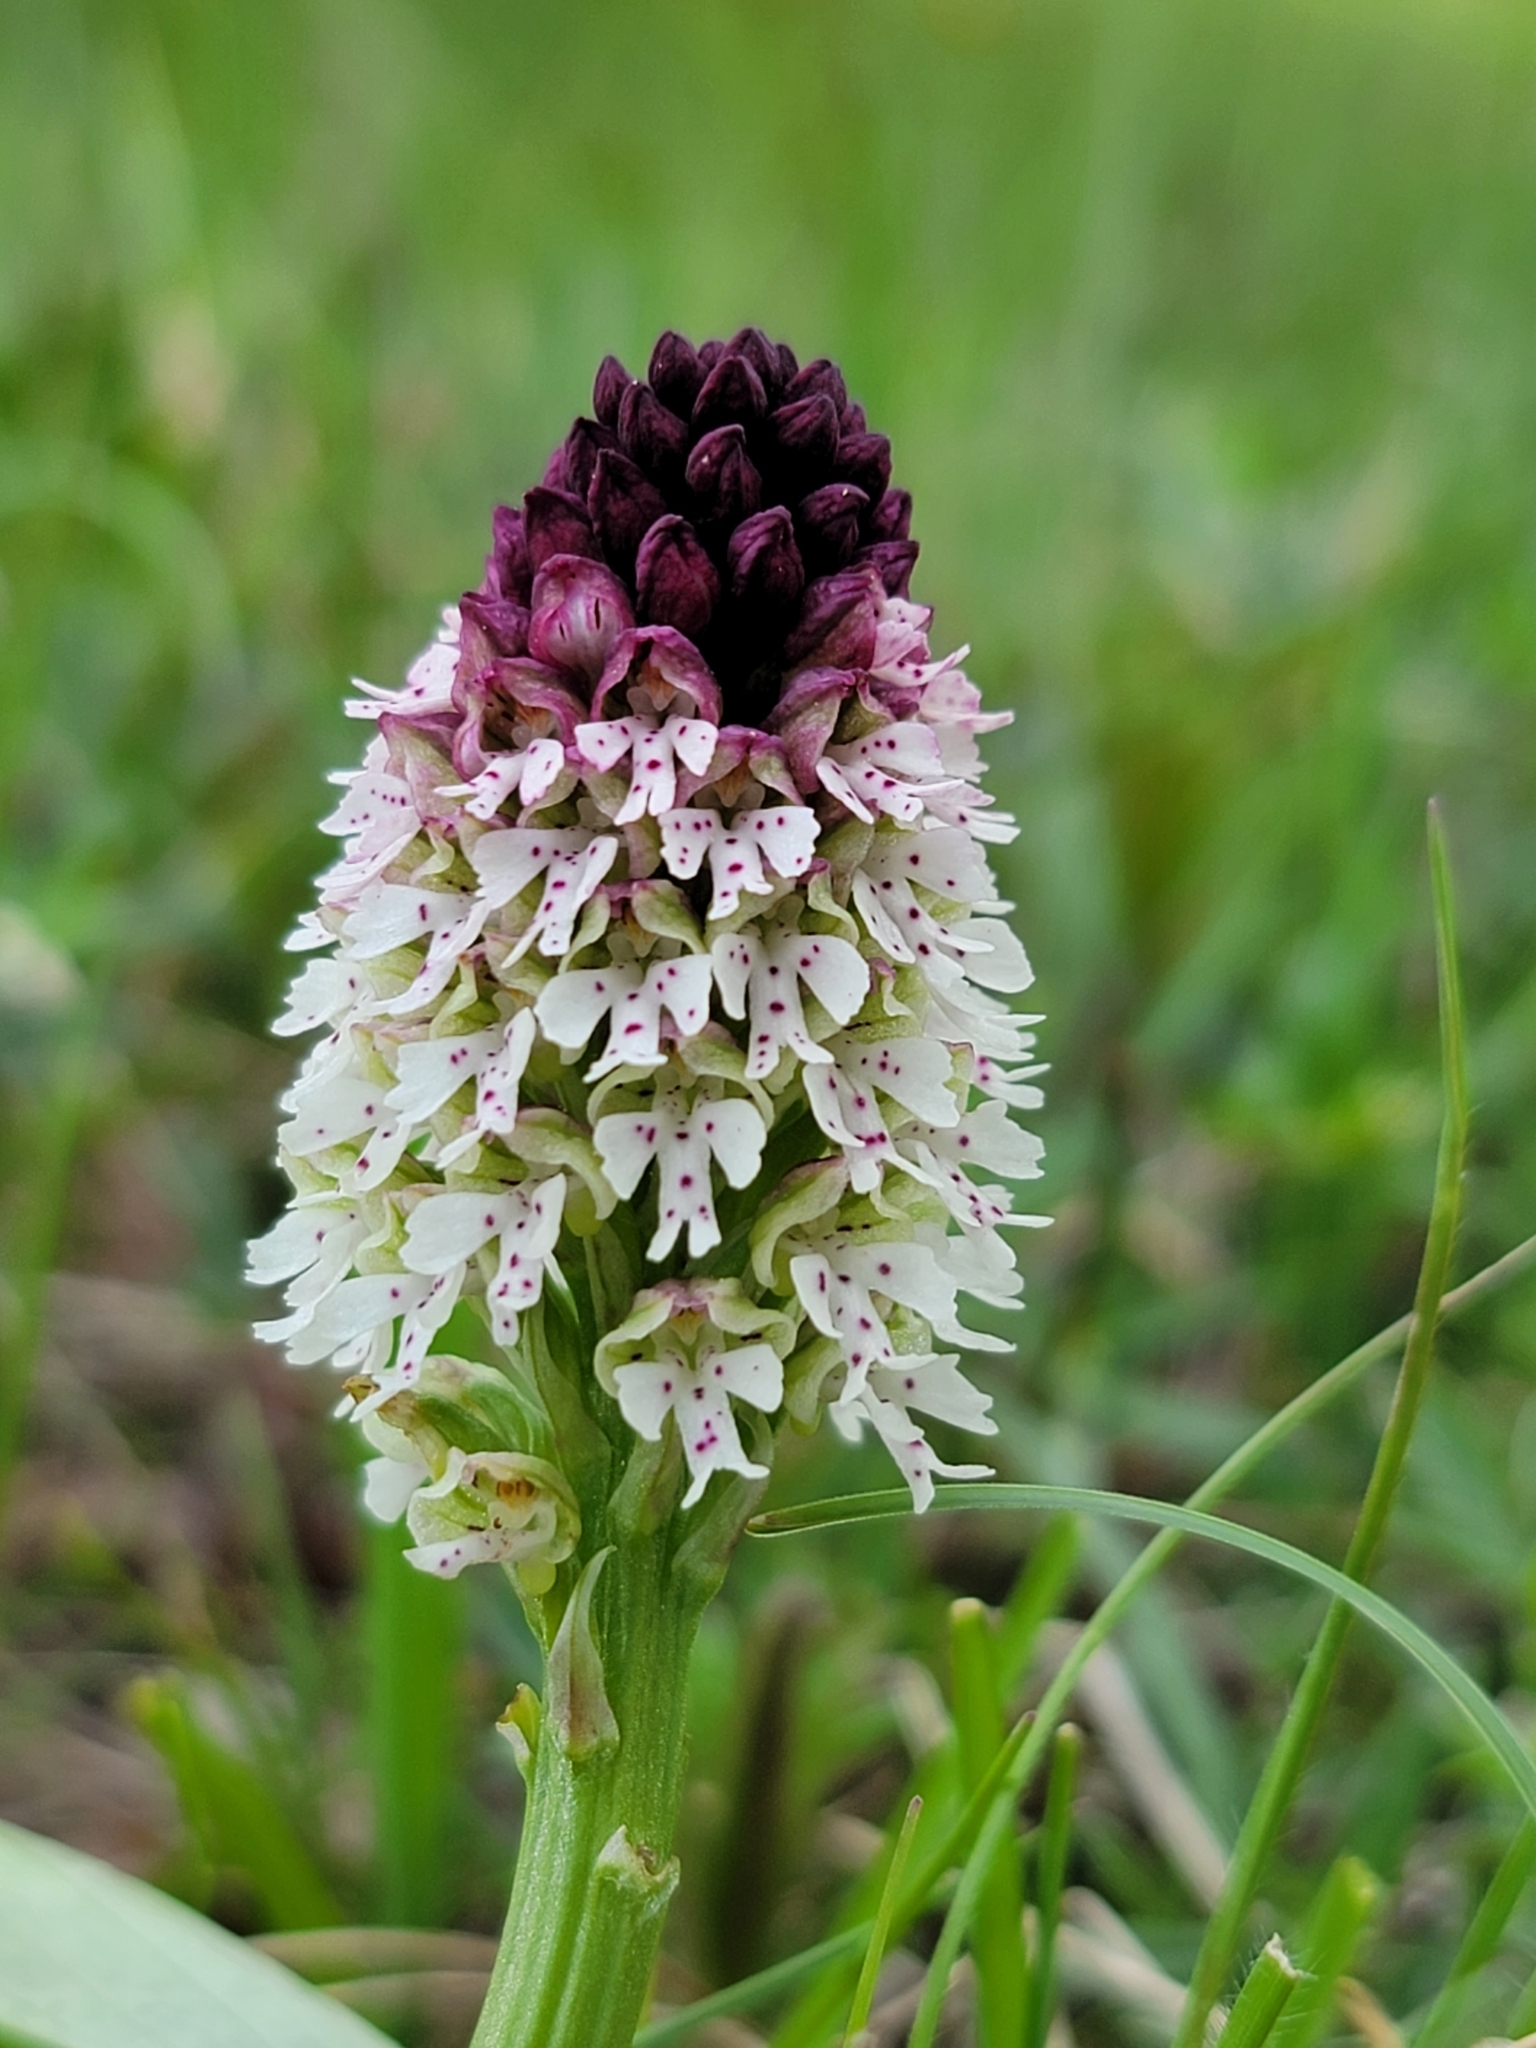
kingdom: Plantae
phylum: Tracheophyta
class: Liliopsida
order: Asparagales
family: Orchidaceae
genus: Neotinea
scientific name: Neotinea ustulata
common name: Burnt orchid
